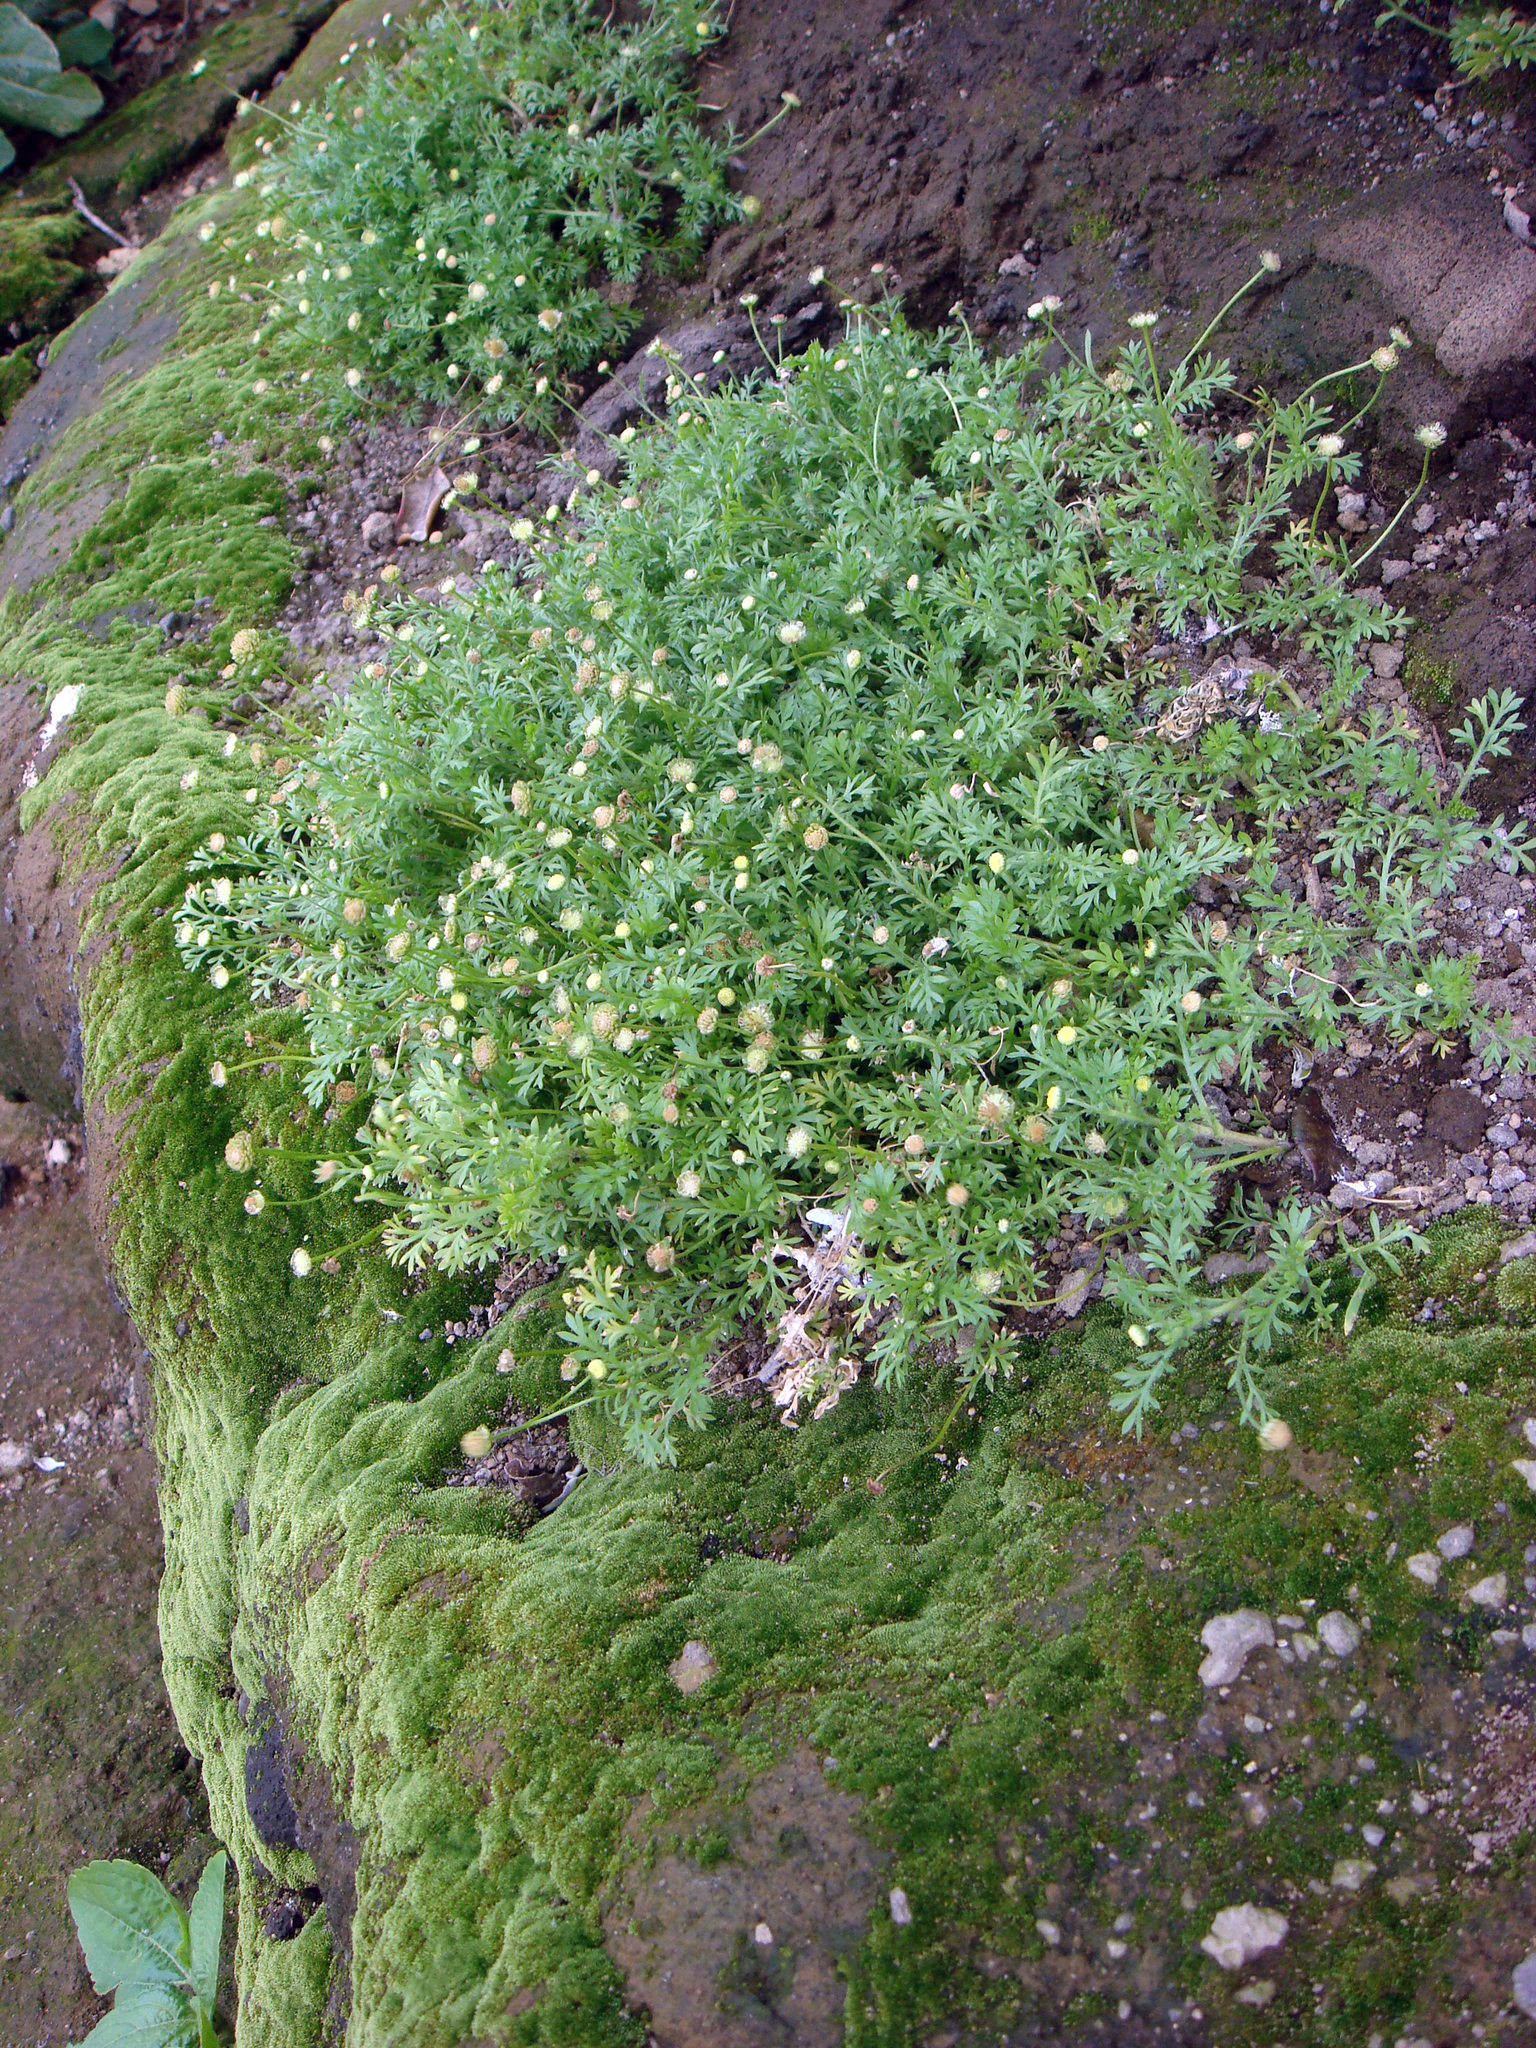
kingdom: Plantae
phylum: Tracheophyta
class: Magnoliopsida
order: Asterales
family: Asteraceae
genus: Cotula
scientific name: Cotula australis
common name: Australian waterbuttons
